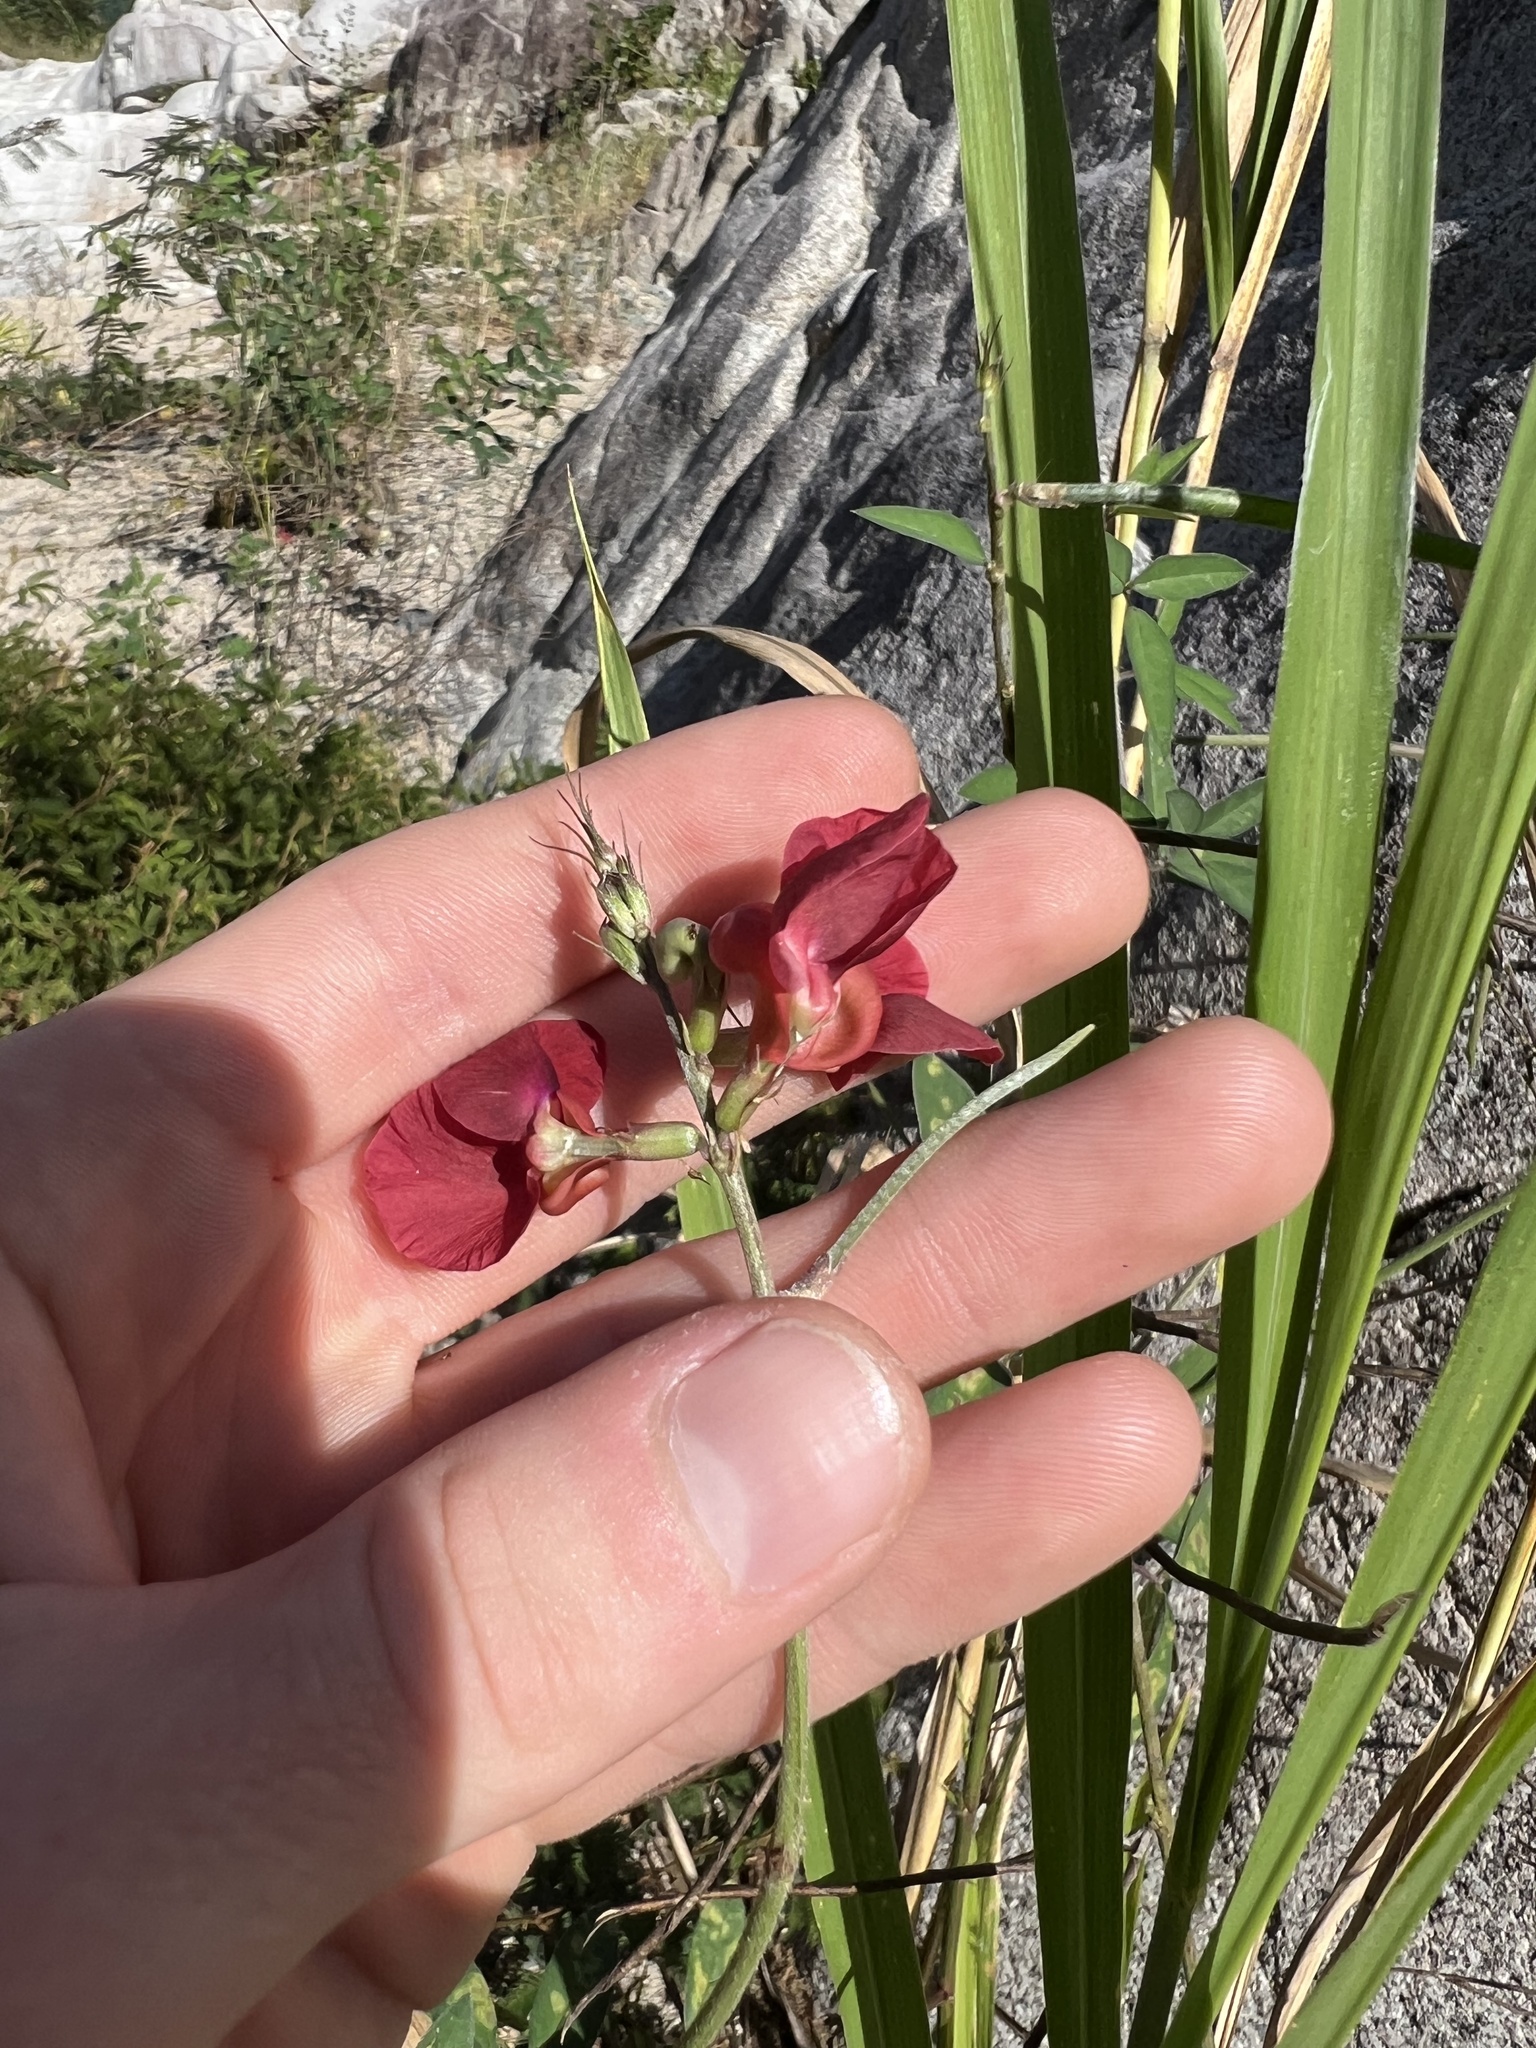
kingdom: Plantae
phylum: Tracheophyta
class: Magnoliopsida
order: Fabales
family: Fabaceae
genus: Macroptilium
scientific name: Macroptilium lathyroides
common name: Wild bushbean
